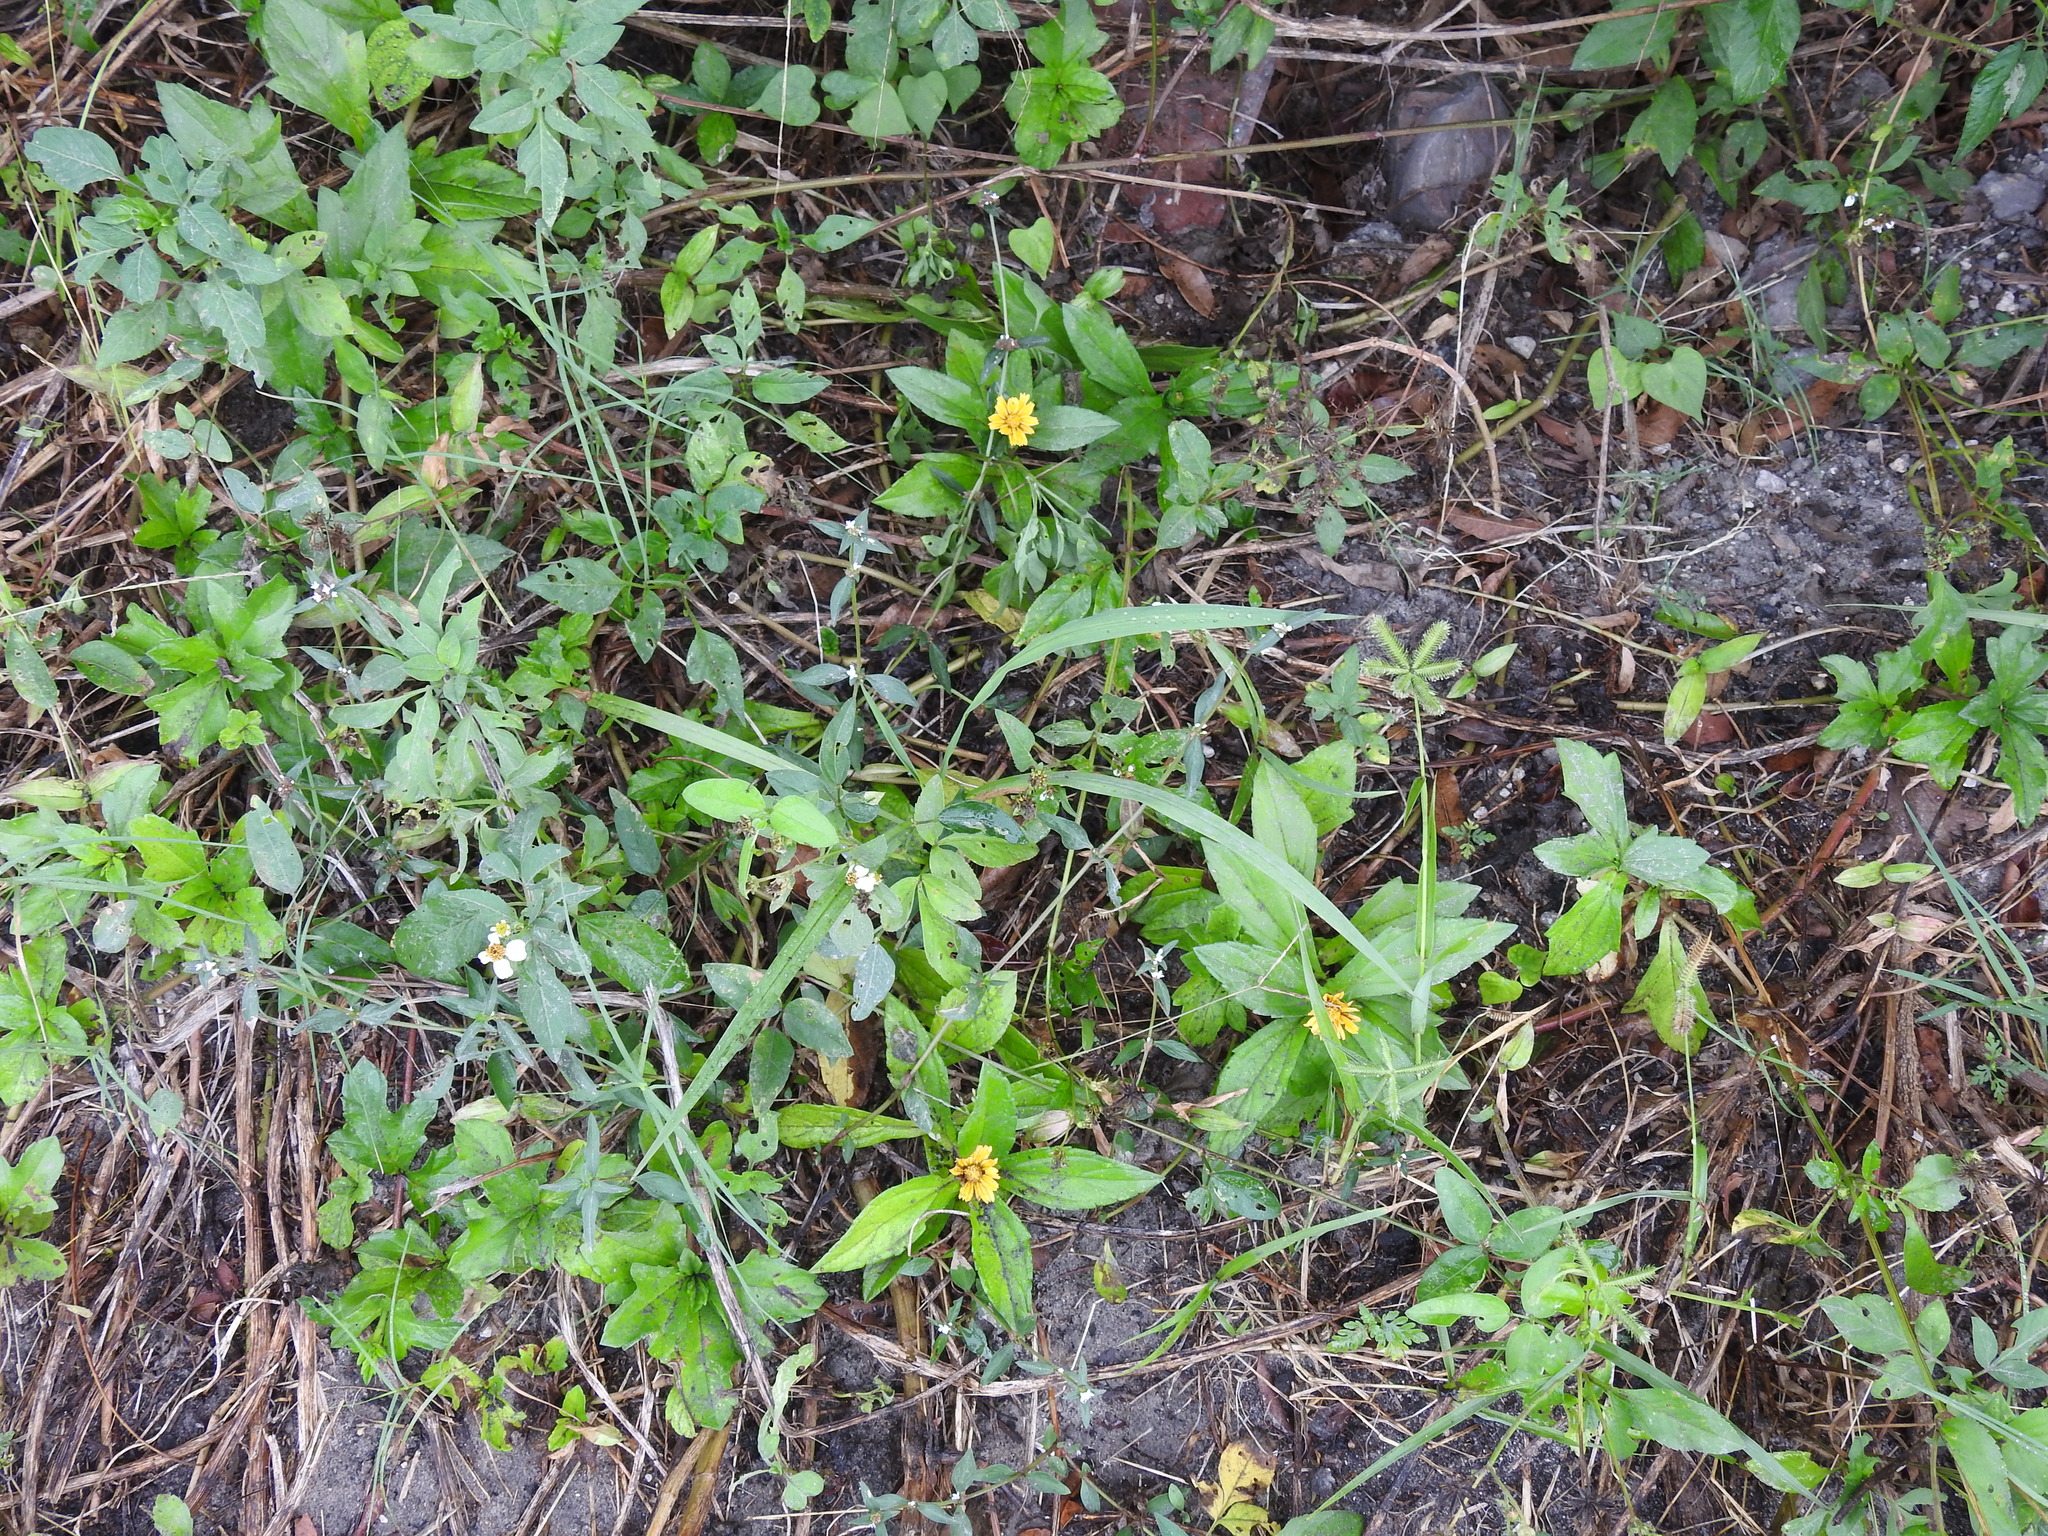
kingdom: Plantae
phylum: Tracheophyta
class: Magnoliopsida
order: Asterales
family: Asteraceae
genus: Sphagneticola
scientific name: Sphagneticola trilobata
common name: Bay biscayne creeping-oxeye
